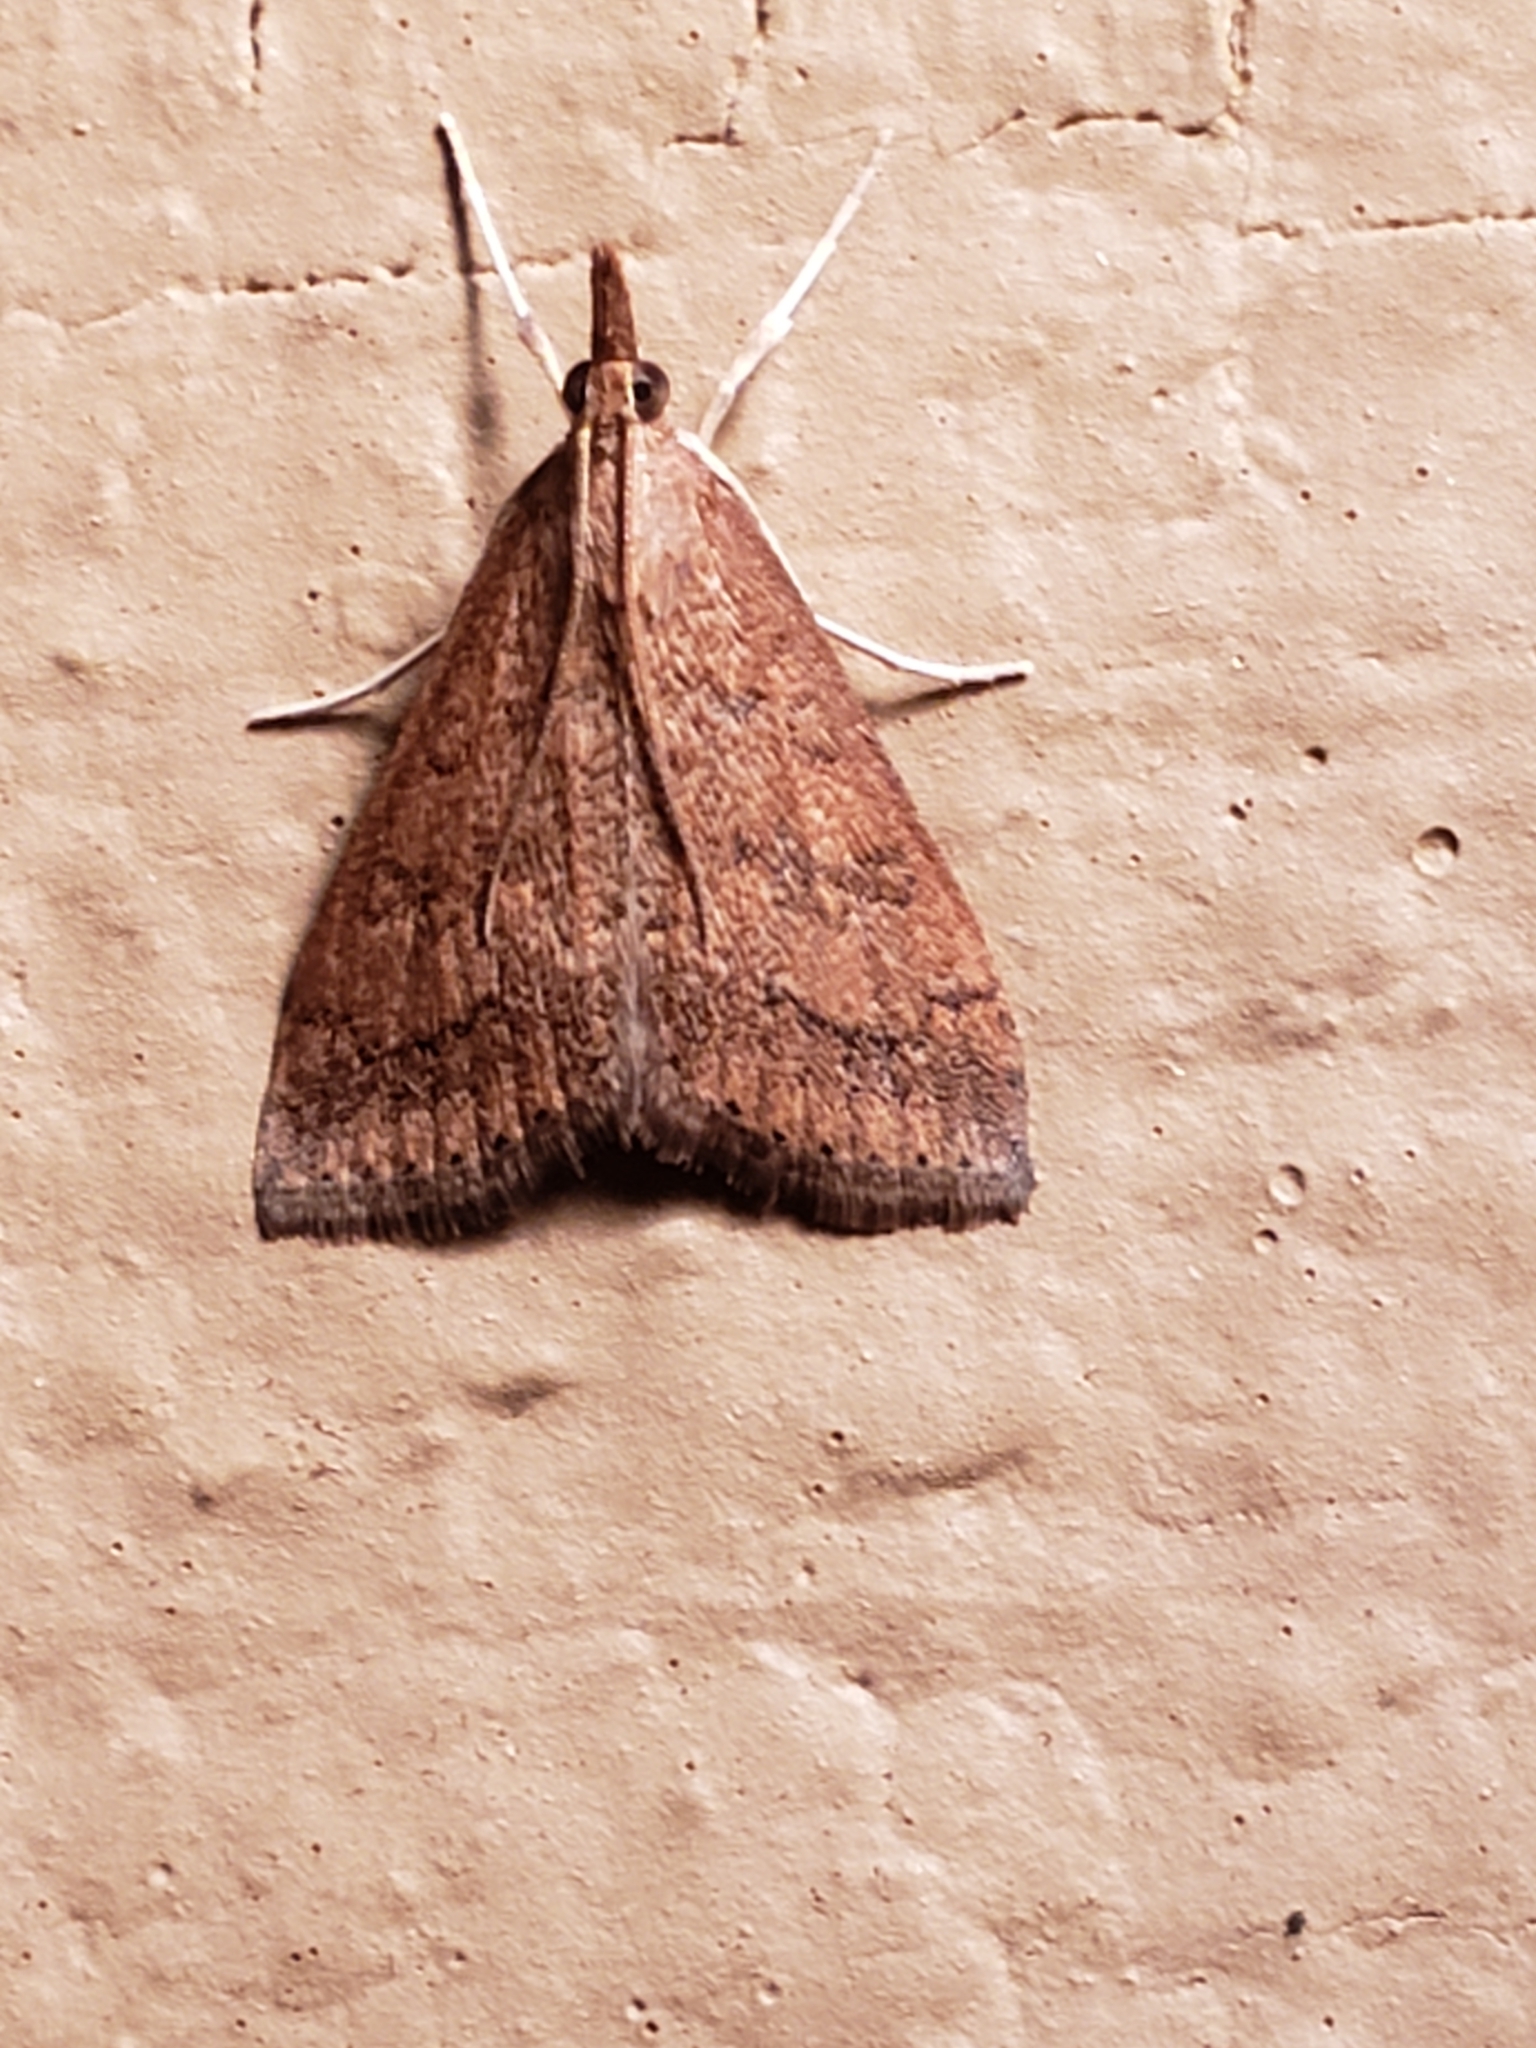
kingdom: Animalia
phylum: Arthropoda
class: Insecta
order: Lepidoptera
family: Crambidae
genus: Udea
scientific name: Udea rubigalis
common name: Celery leaftier moth
